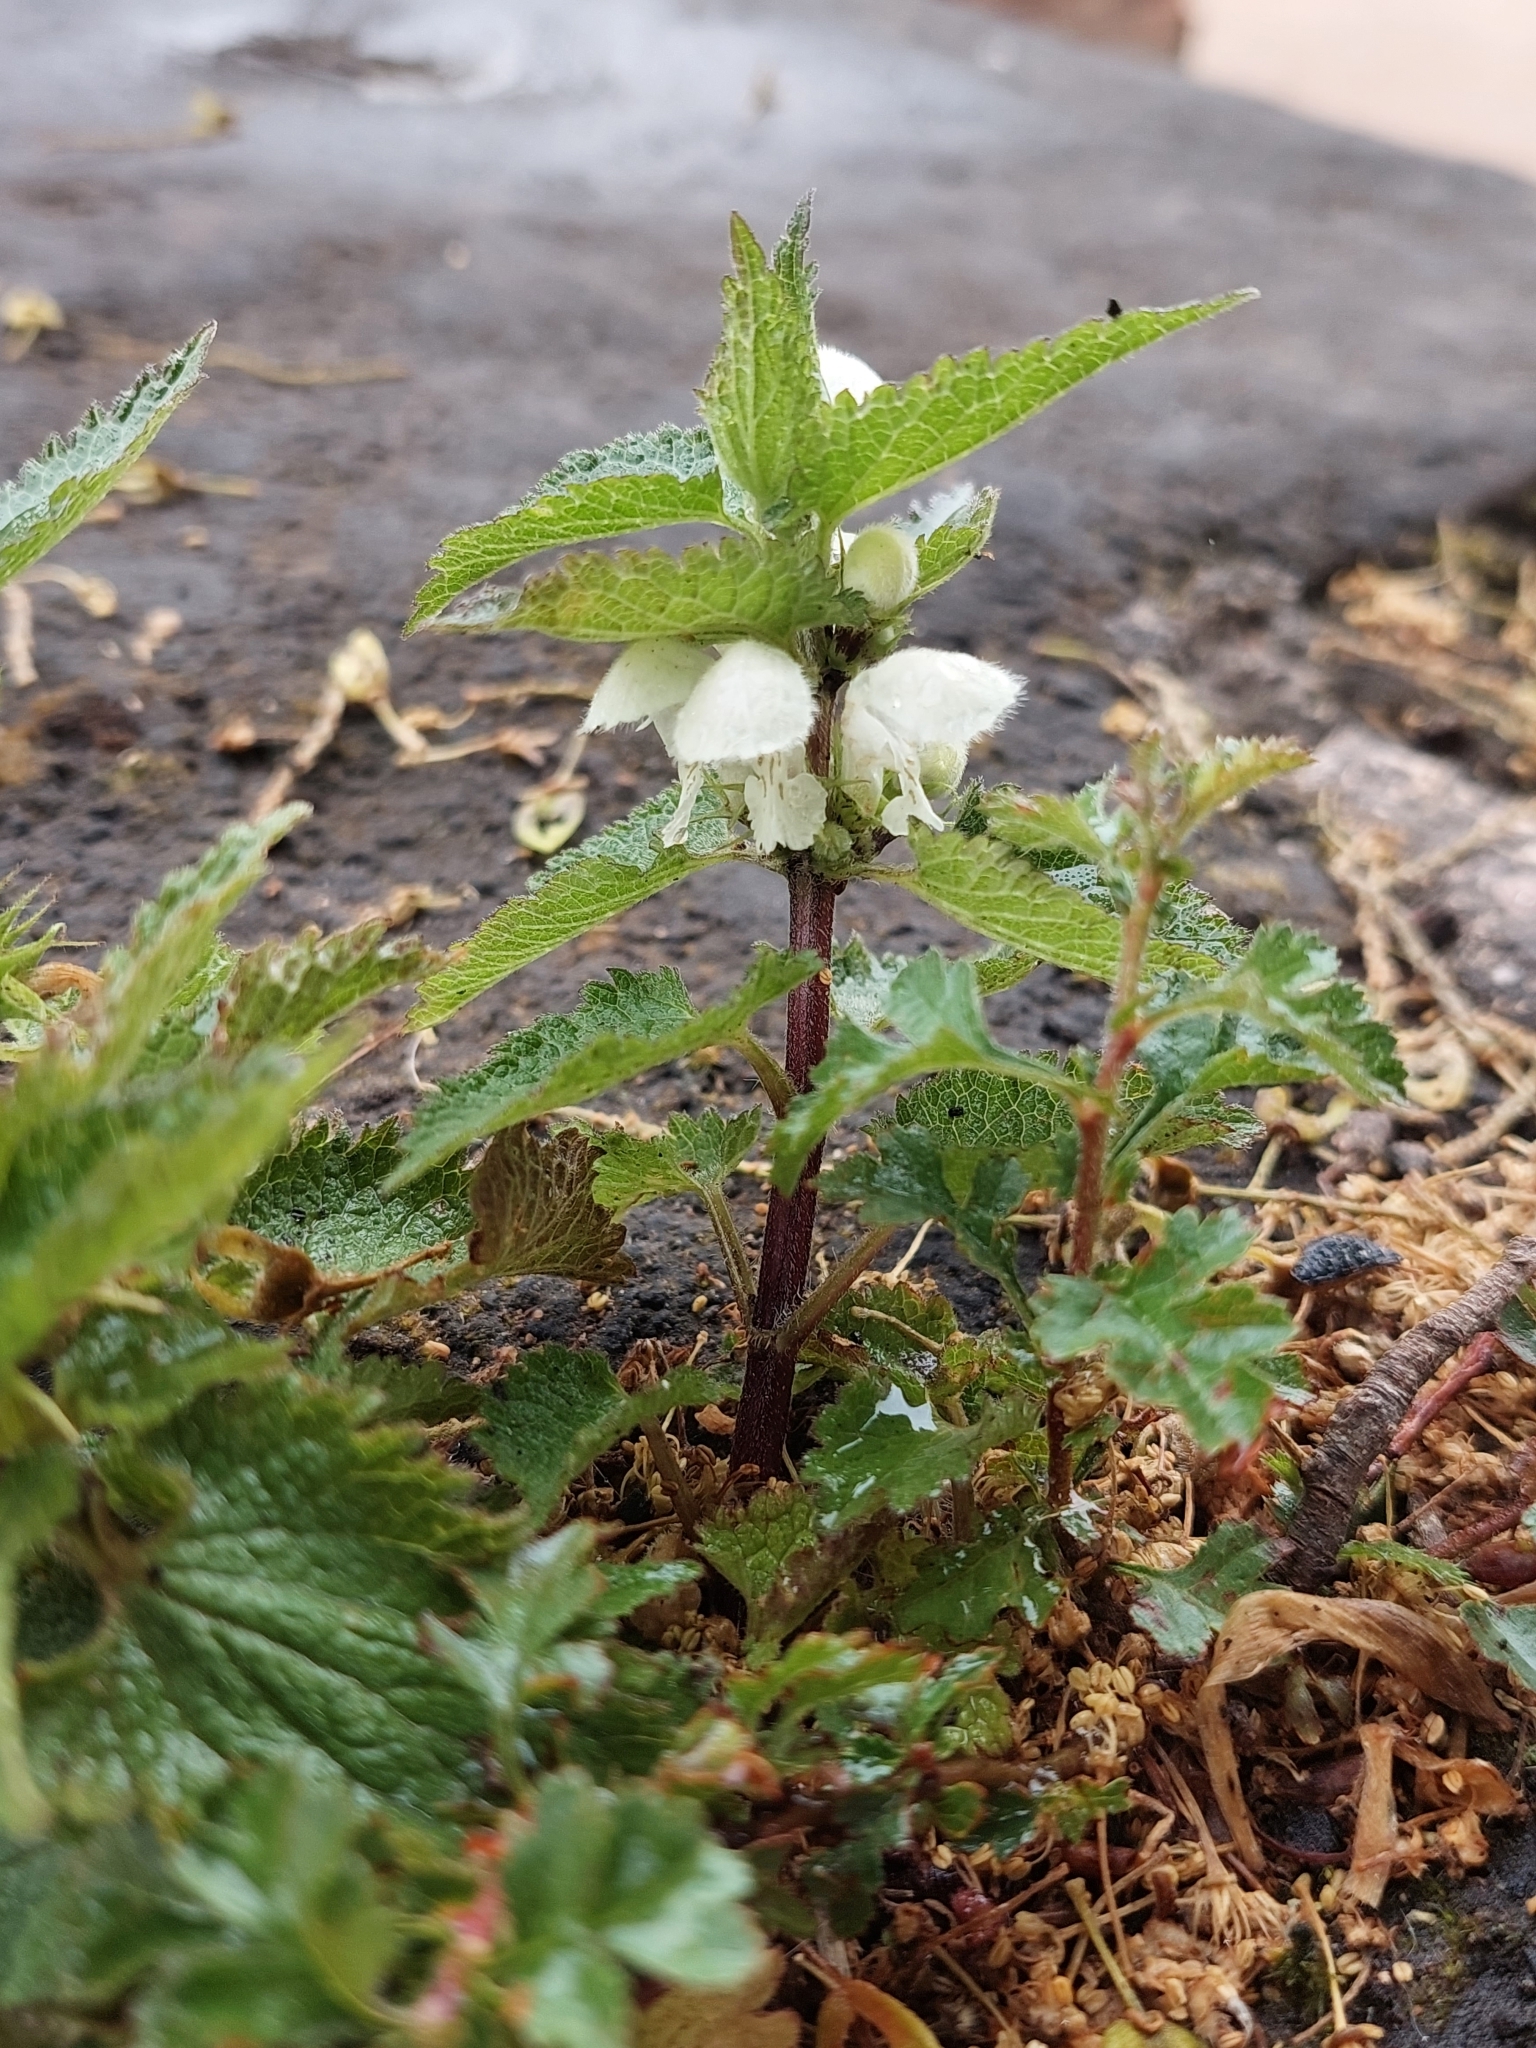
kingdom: Plantae
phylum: Tracheophyta
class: Magnoliopsida
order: Lamiales
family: Lamiaceae
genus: Lamium
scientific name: Lamium album
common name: White dead-nettle
